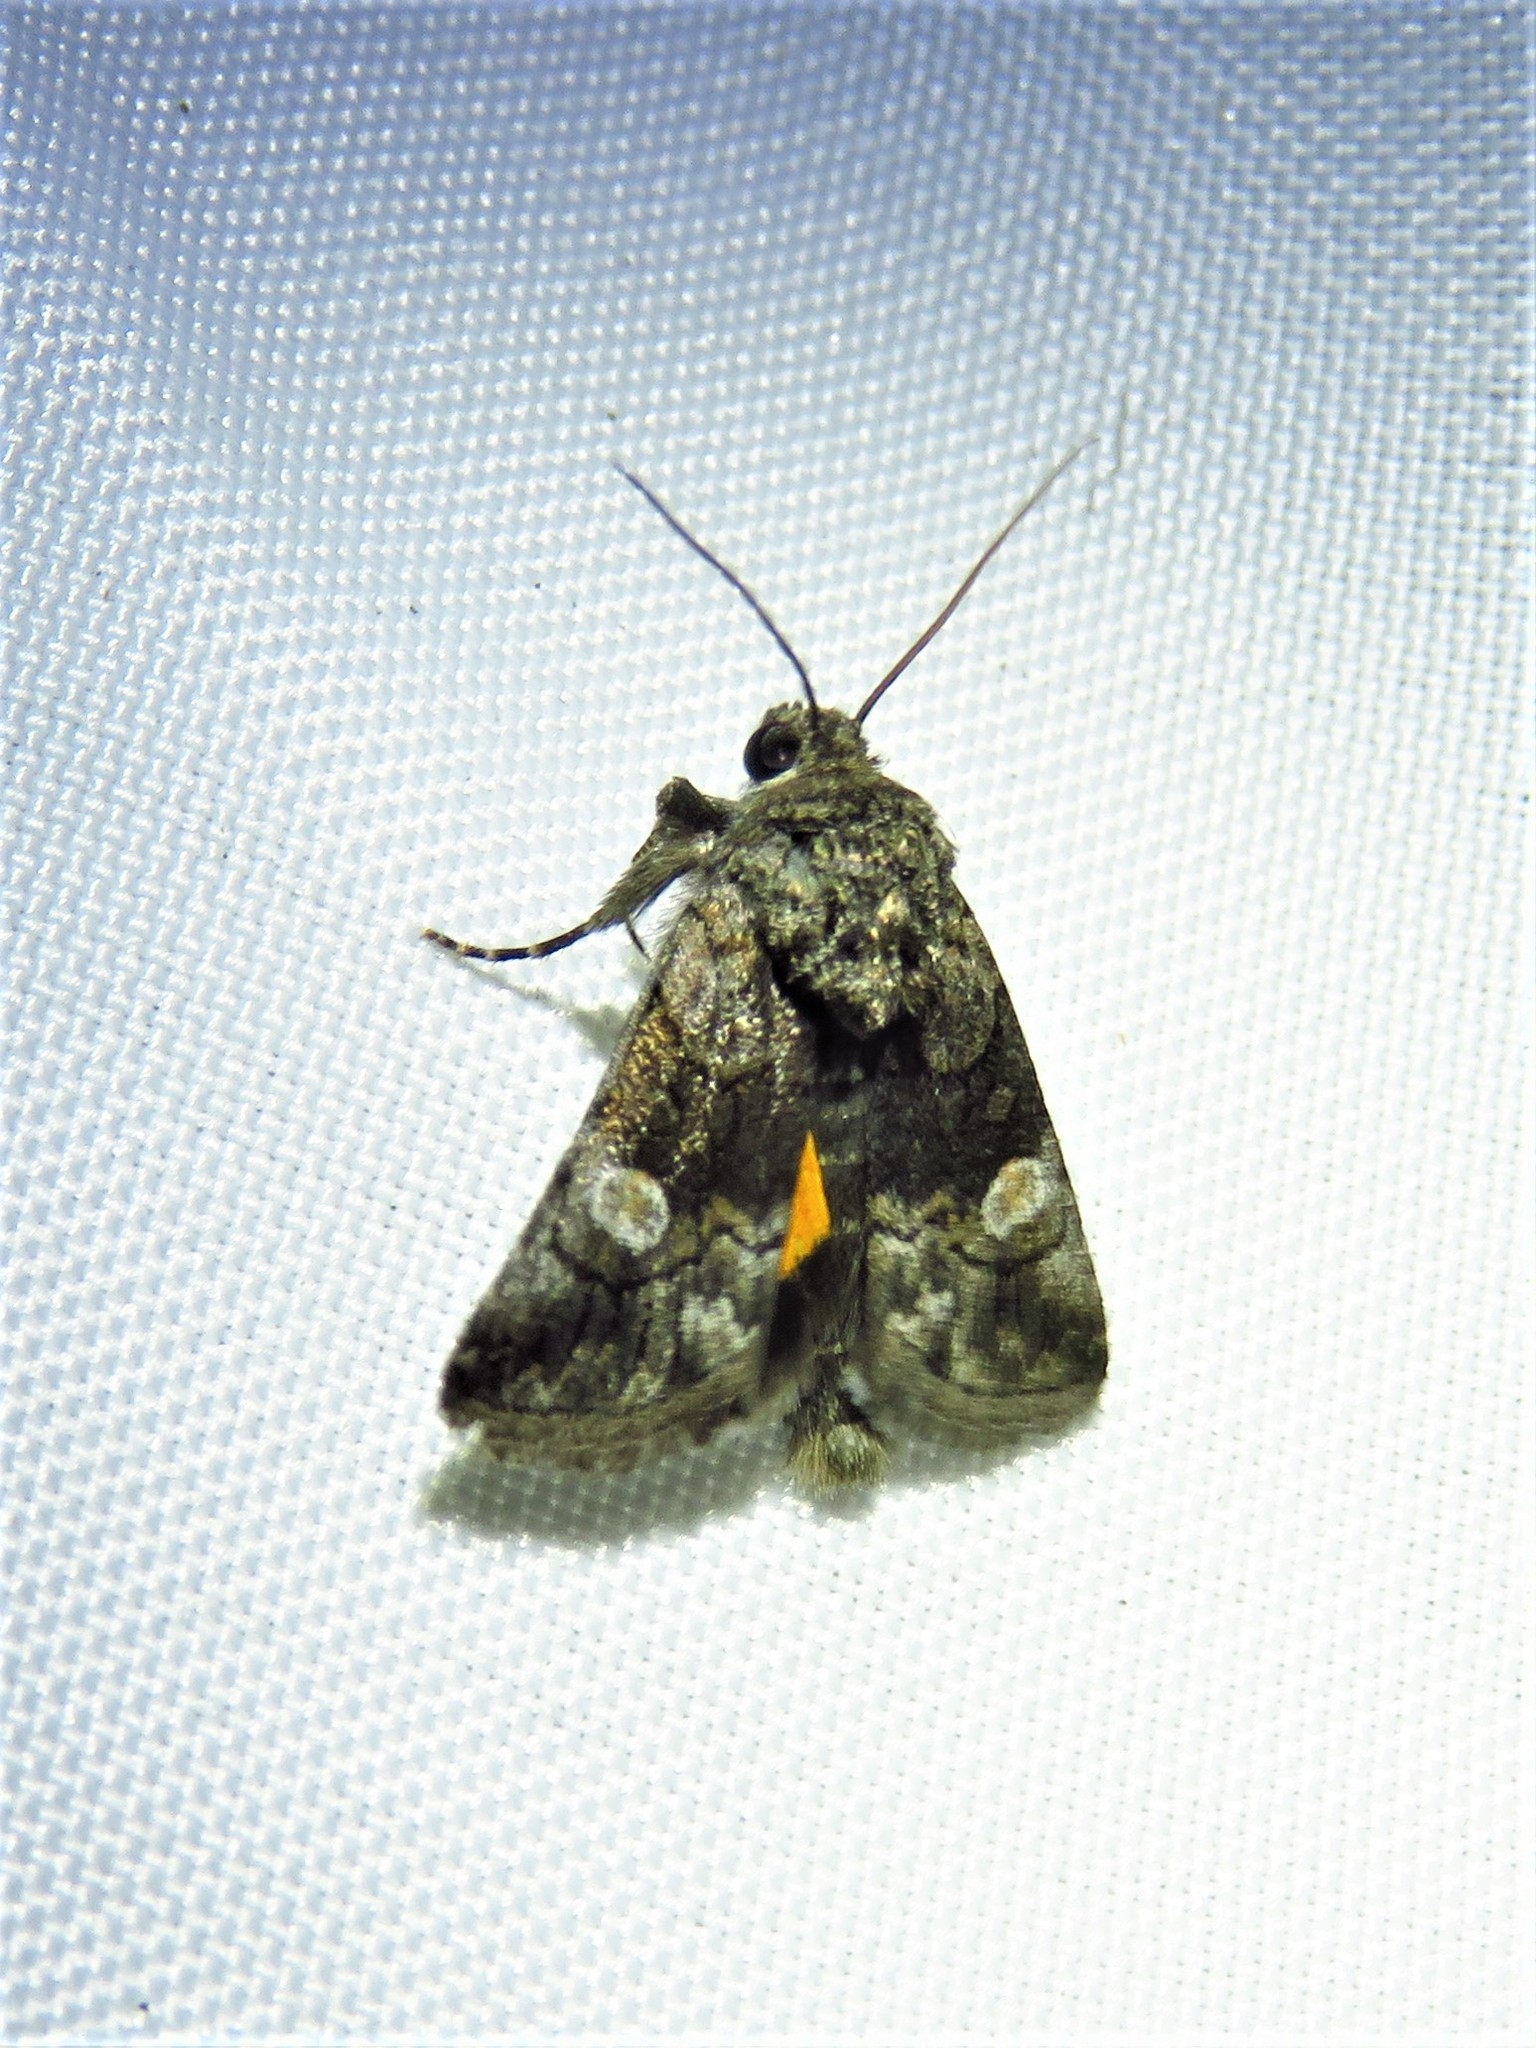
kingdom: Animalia
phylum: Arthropoda
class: Insecta
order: Lepidoptera
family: Noctuidae
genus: Copanarta
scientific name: Copanarta aurea
